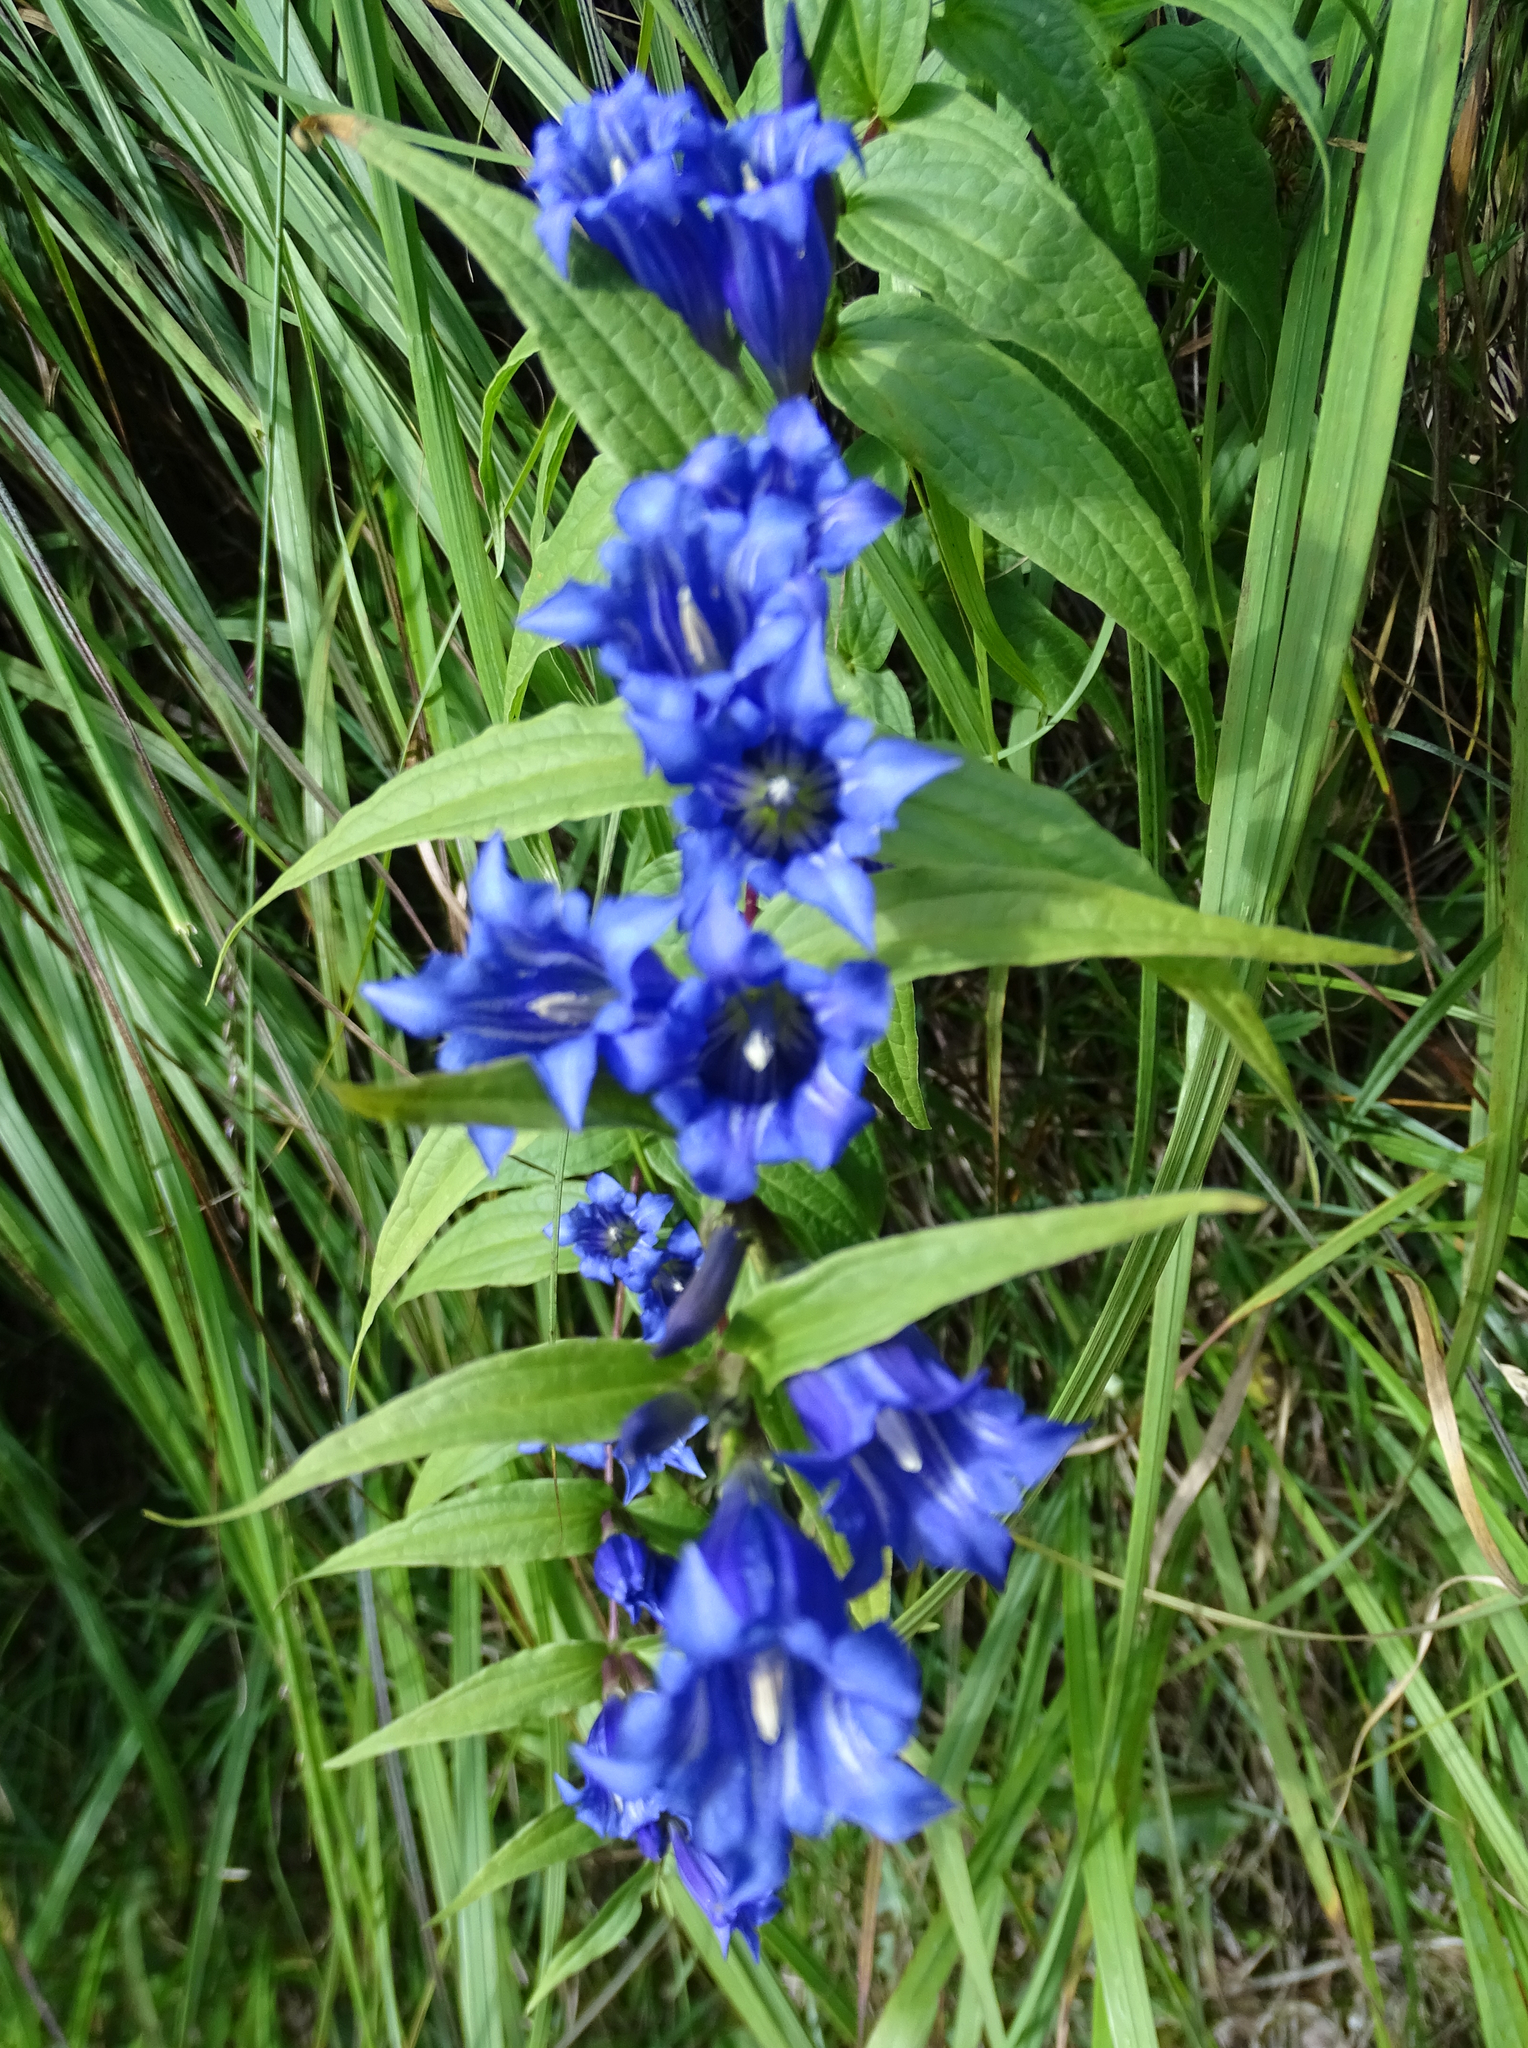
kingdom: Plantae
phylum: Tracheophyta
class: Magnoliopsida
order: Gentianales
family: Gentianaceae
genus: Gentiana
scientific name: Gentiana asclepiadea
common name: Willow gentian
